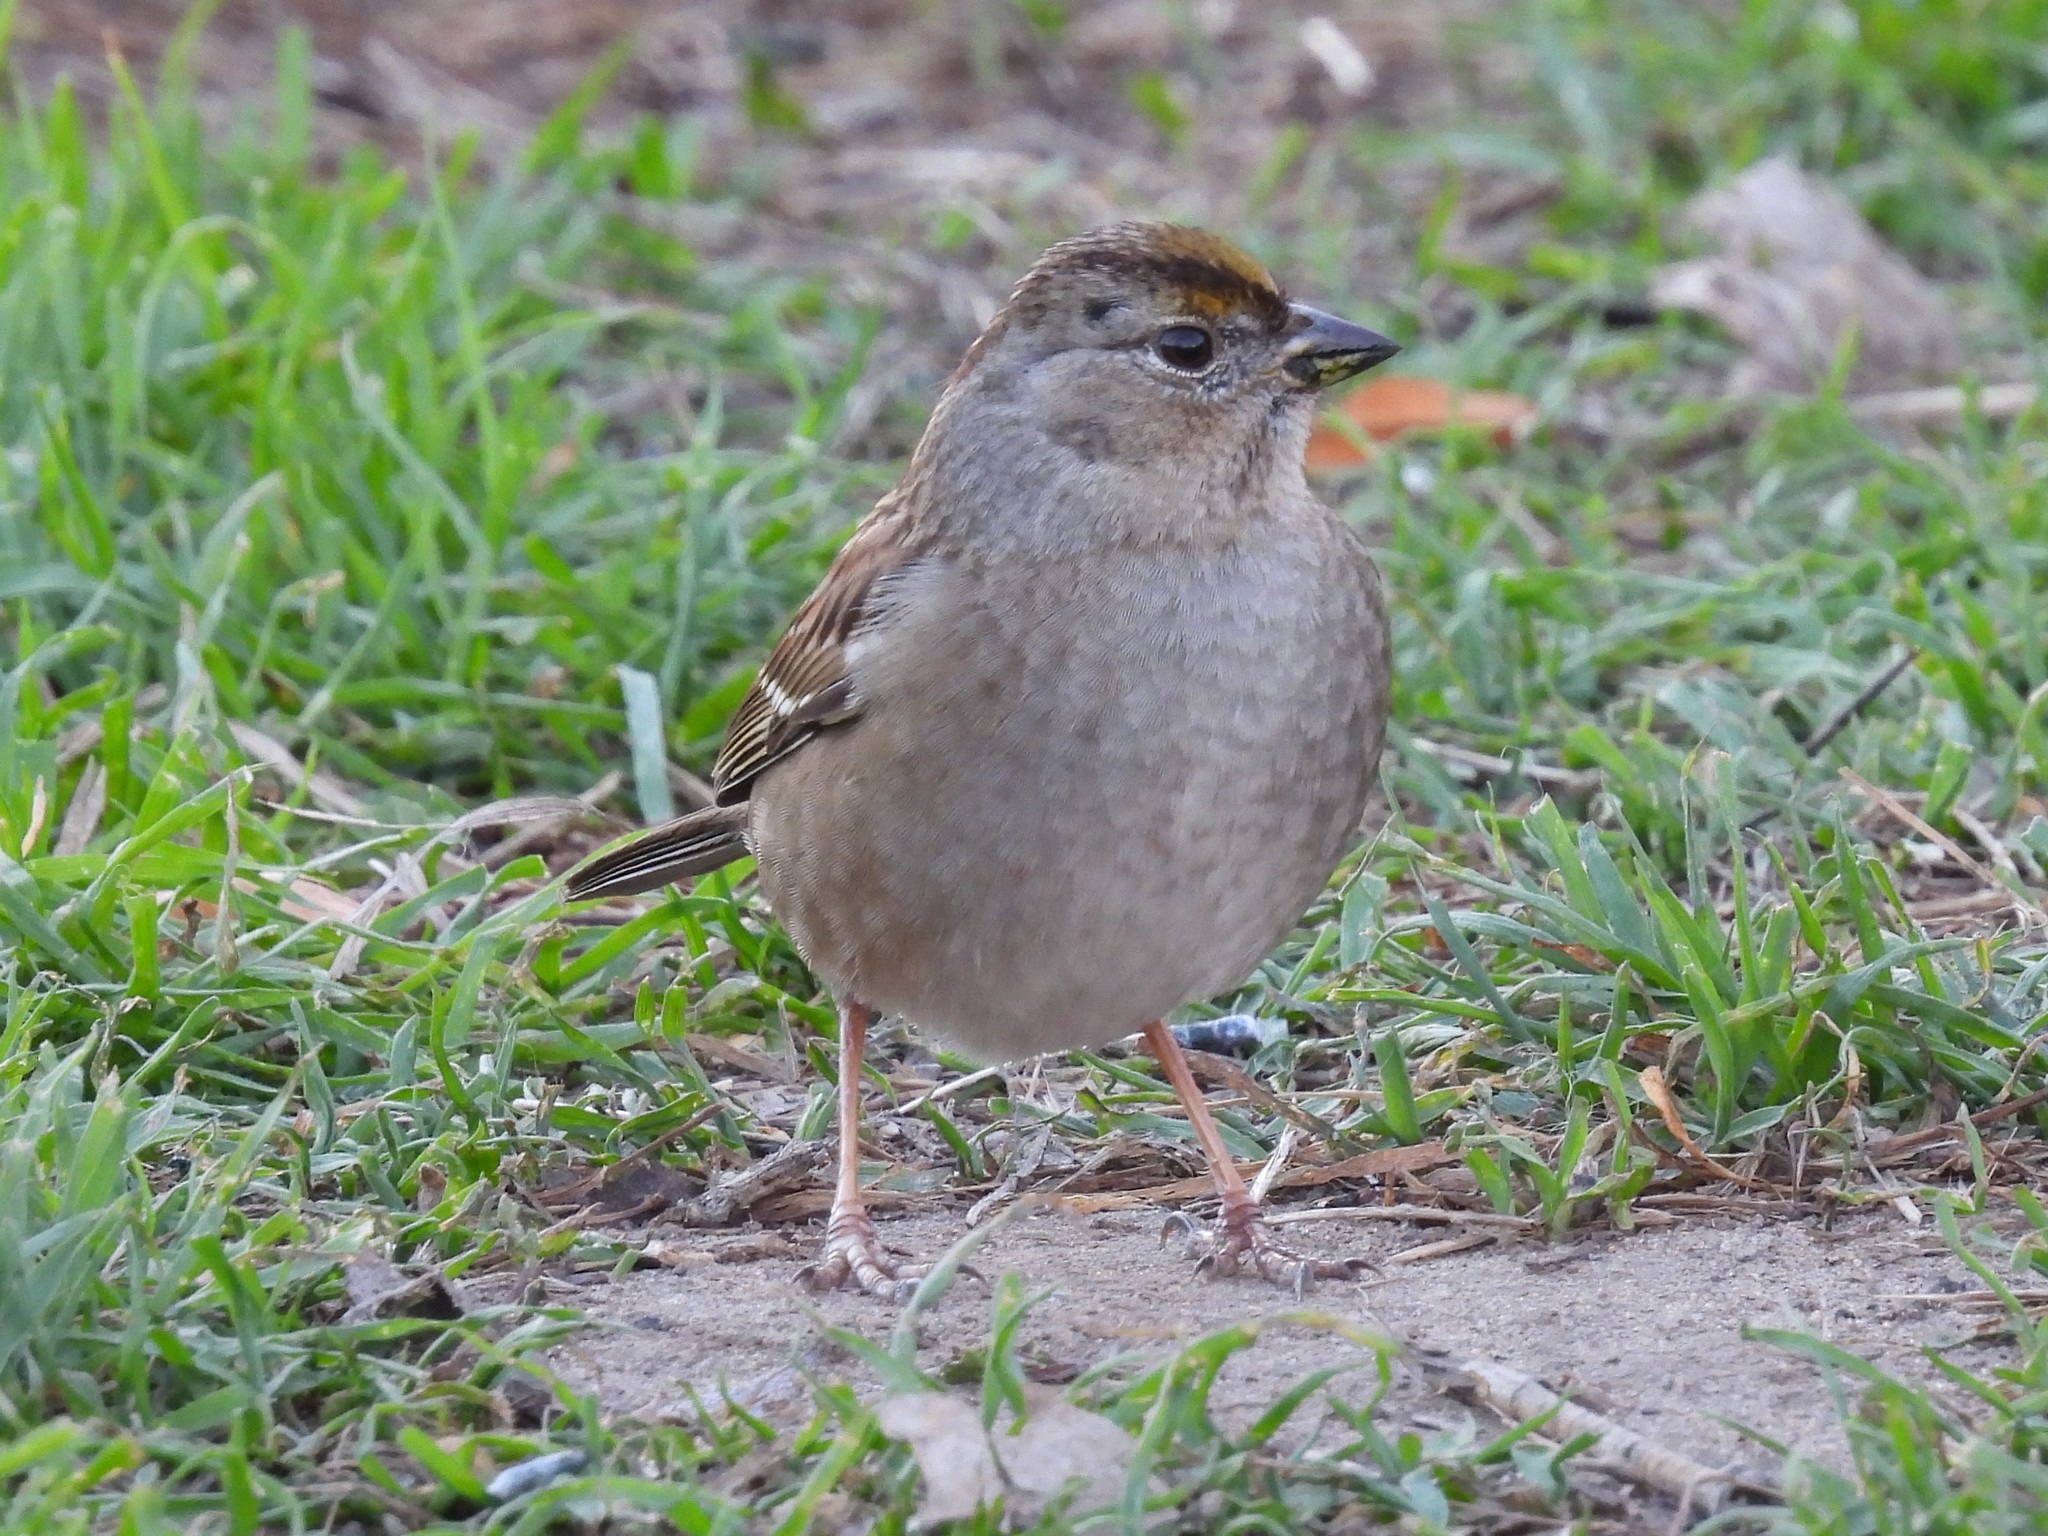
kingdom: Animalia
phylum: Chordata
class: Aves
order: Passeriformes
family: Passerellidae
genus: Zonotrichia
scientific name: Zonotrichia atricapilla
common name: Golden-crowned sparrow
